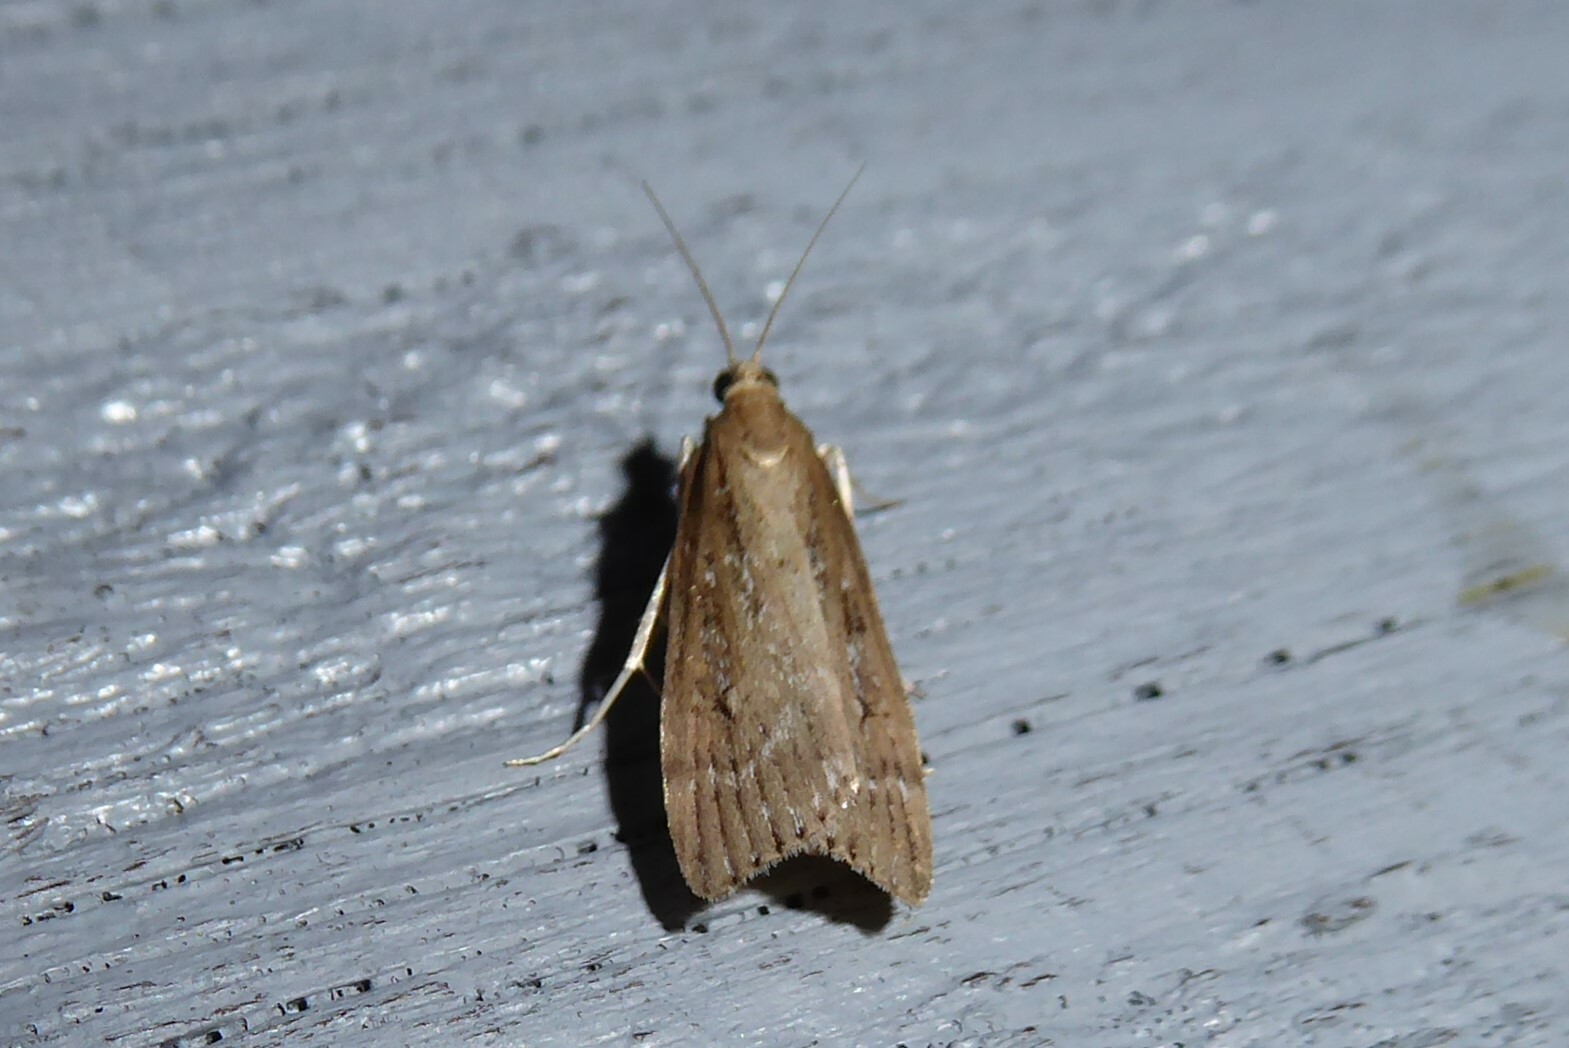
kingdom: Animalia
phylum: Arthropoda
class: Insecta
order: Lepidoptera
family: Crambidae
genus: Eudonia
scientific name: Eudonia octophora
